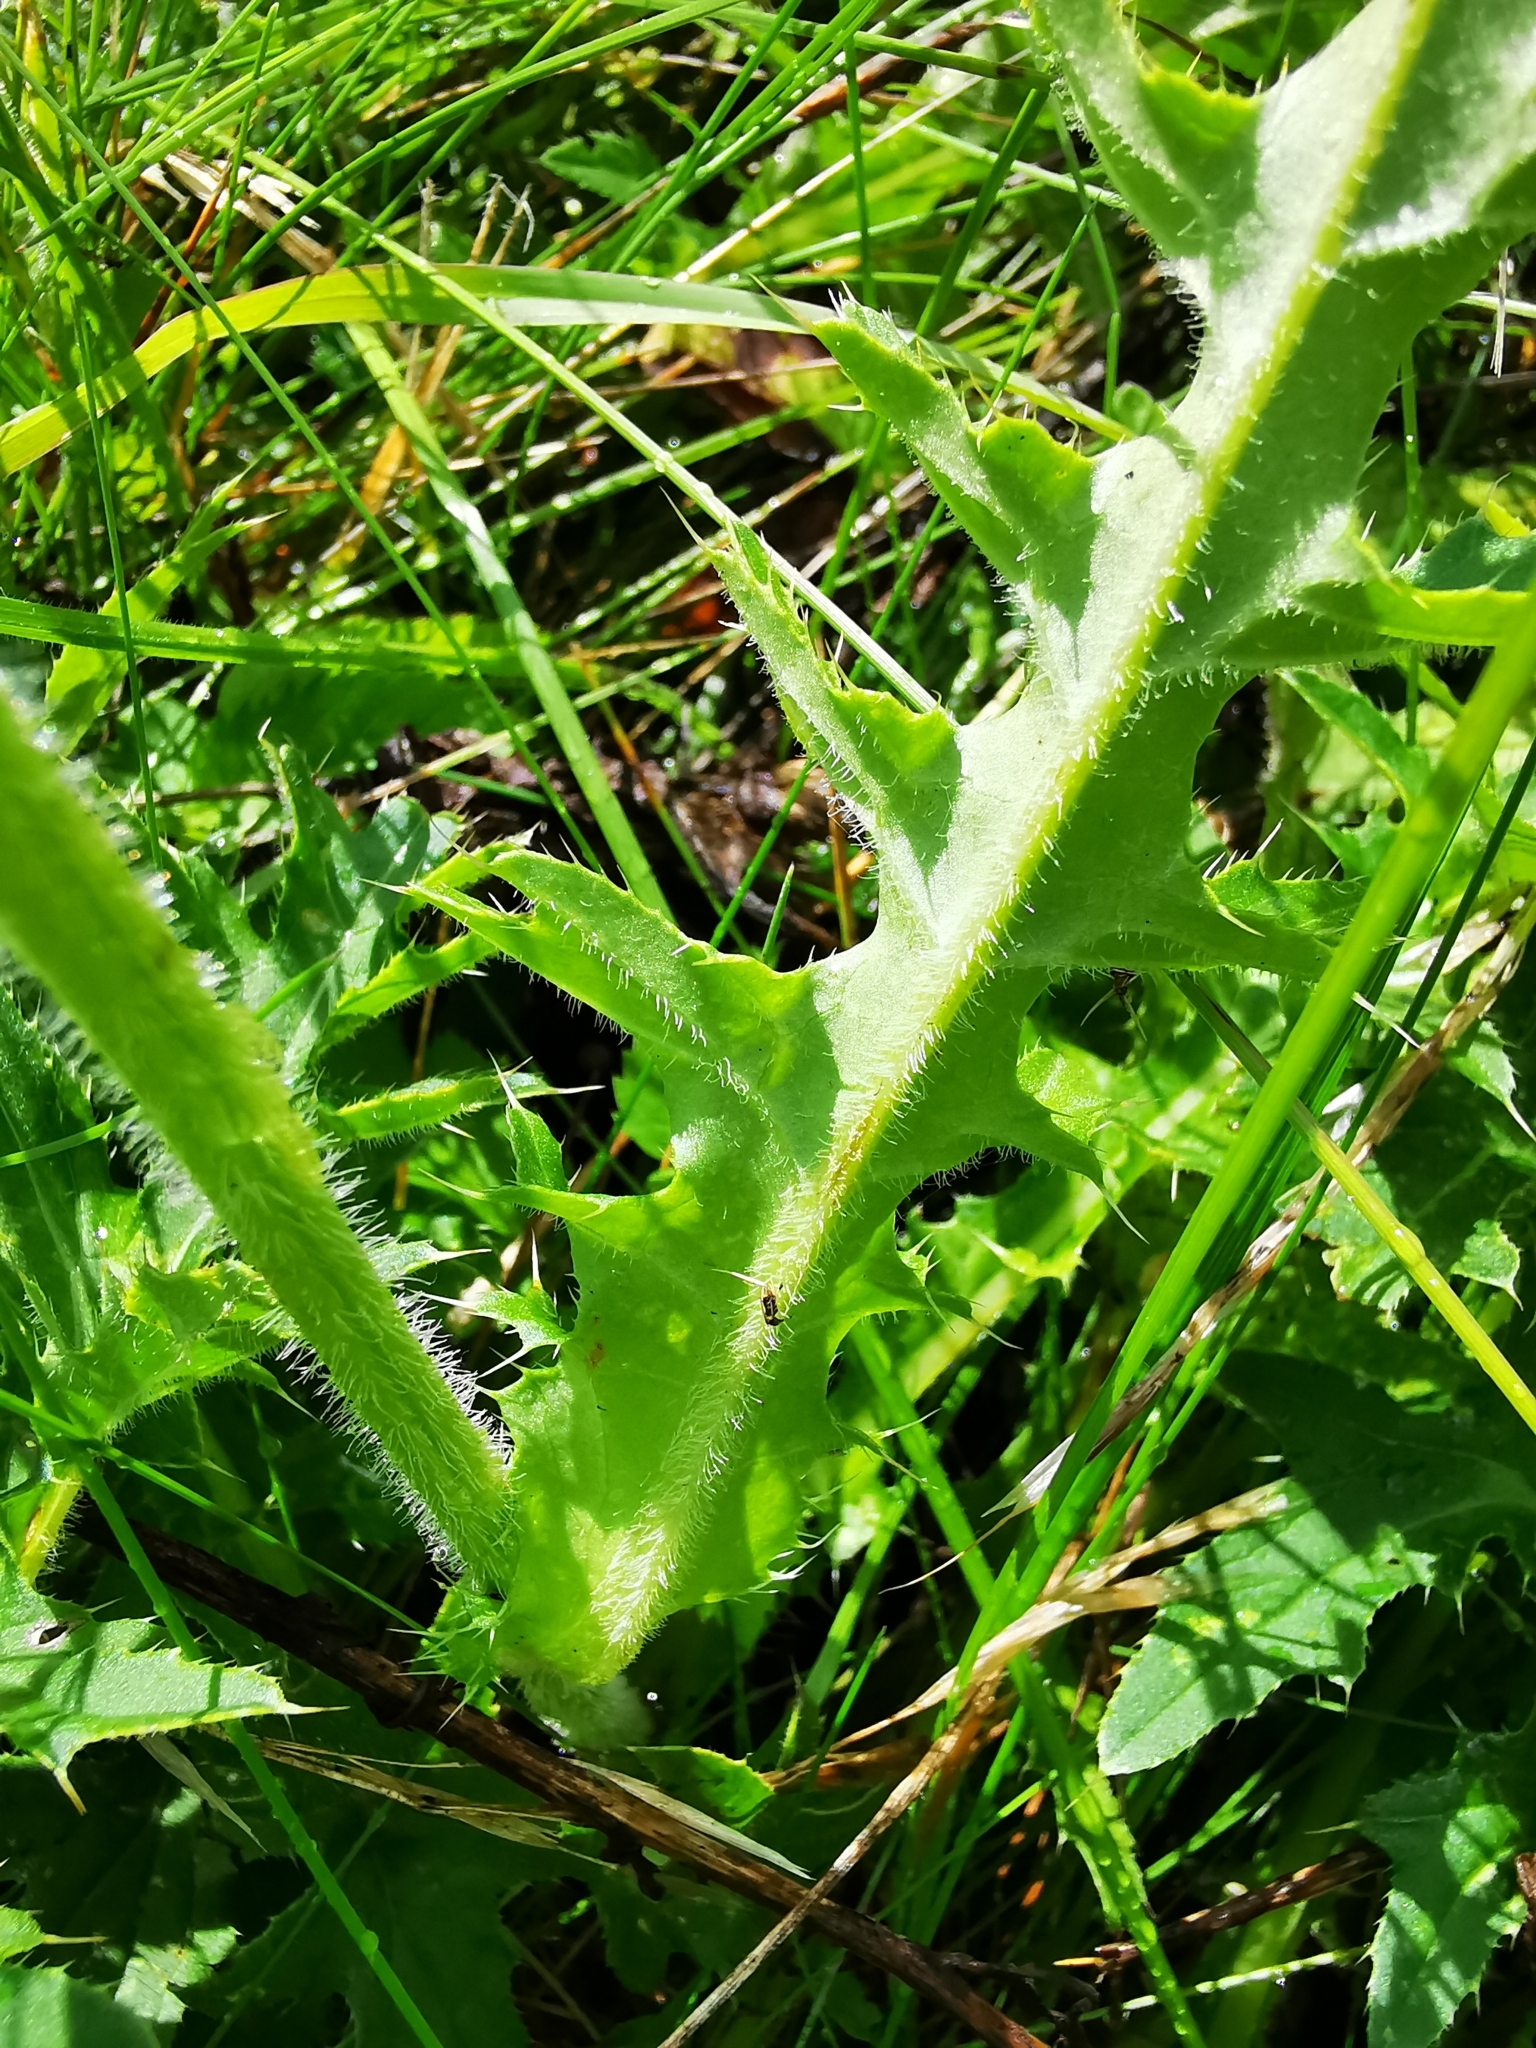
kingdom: Plantae
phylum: Tracheophyta
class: Magnoliopsida
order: Asterales
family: Asteraceae
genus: Cirsium
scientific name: Cirsium acaulon
